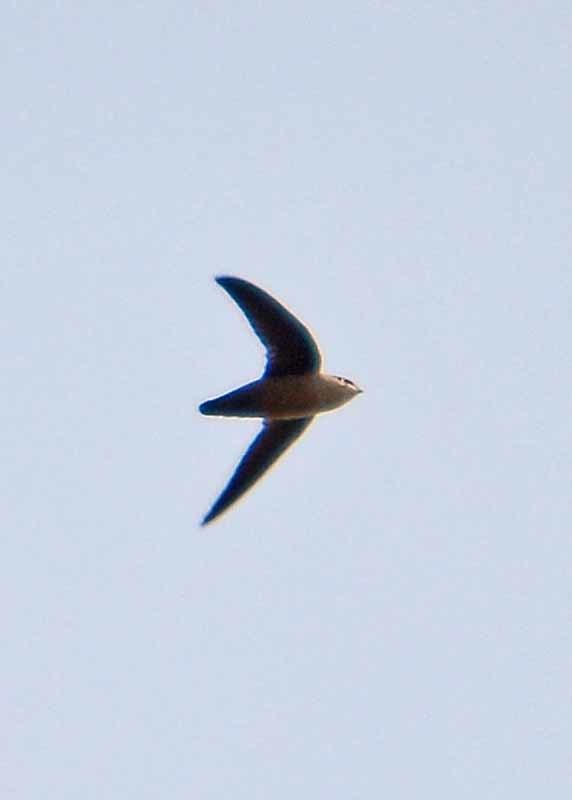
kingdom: Animalia
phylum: Chordata
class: Aves
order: Apodiformes
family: Apodidae
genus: Chaetura
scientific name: Chaetura vauxi
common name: Vaux's swift
